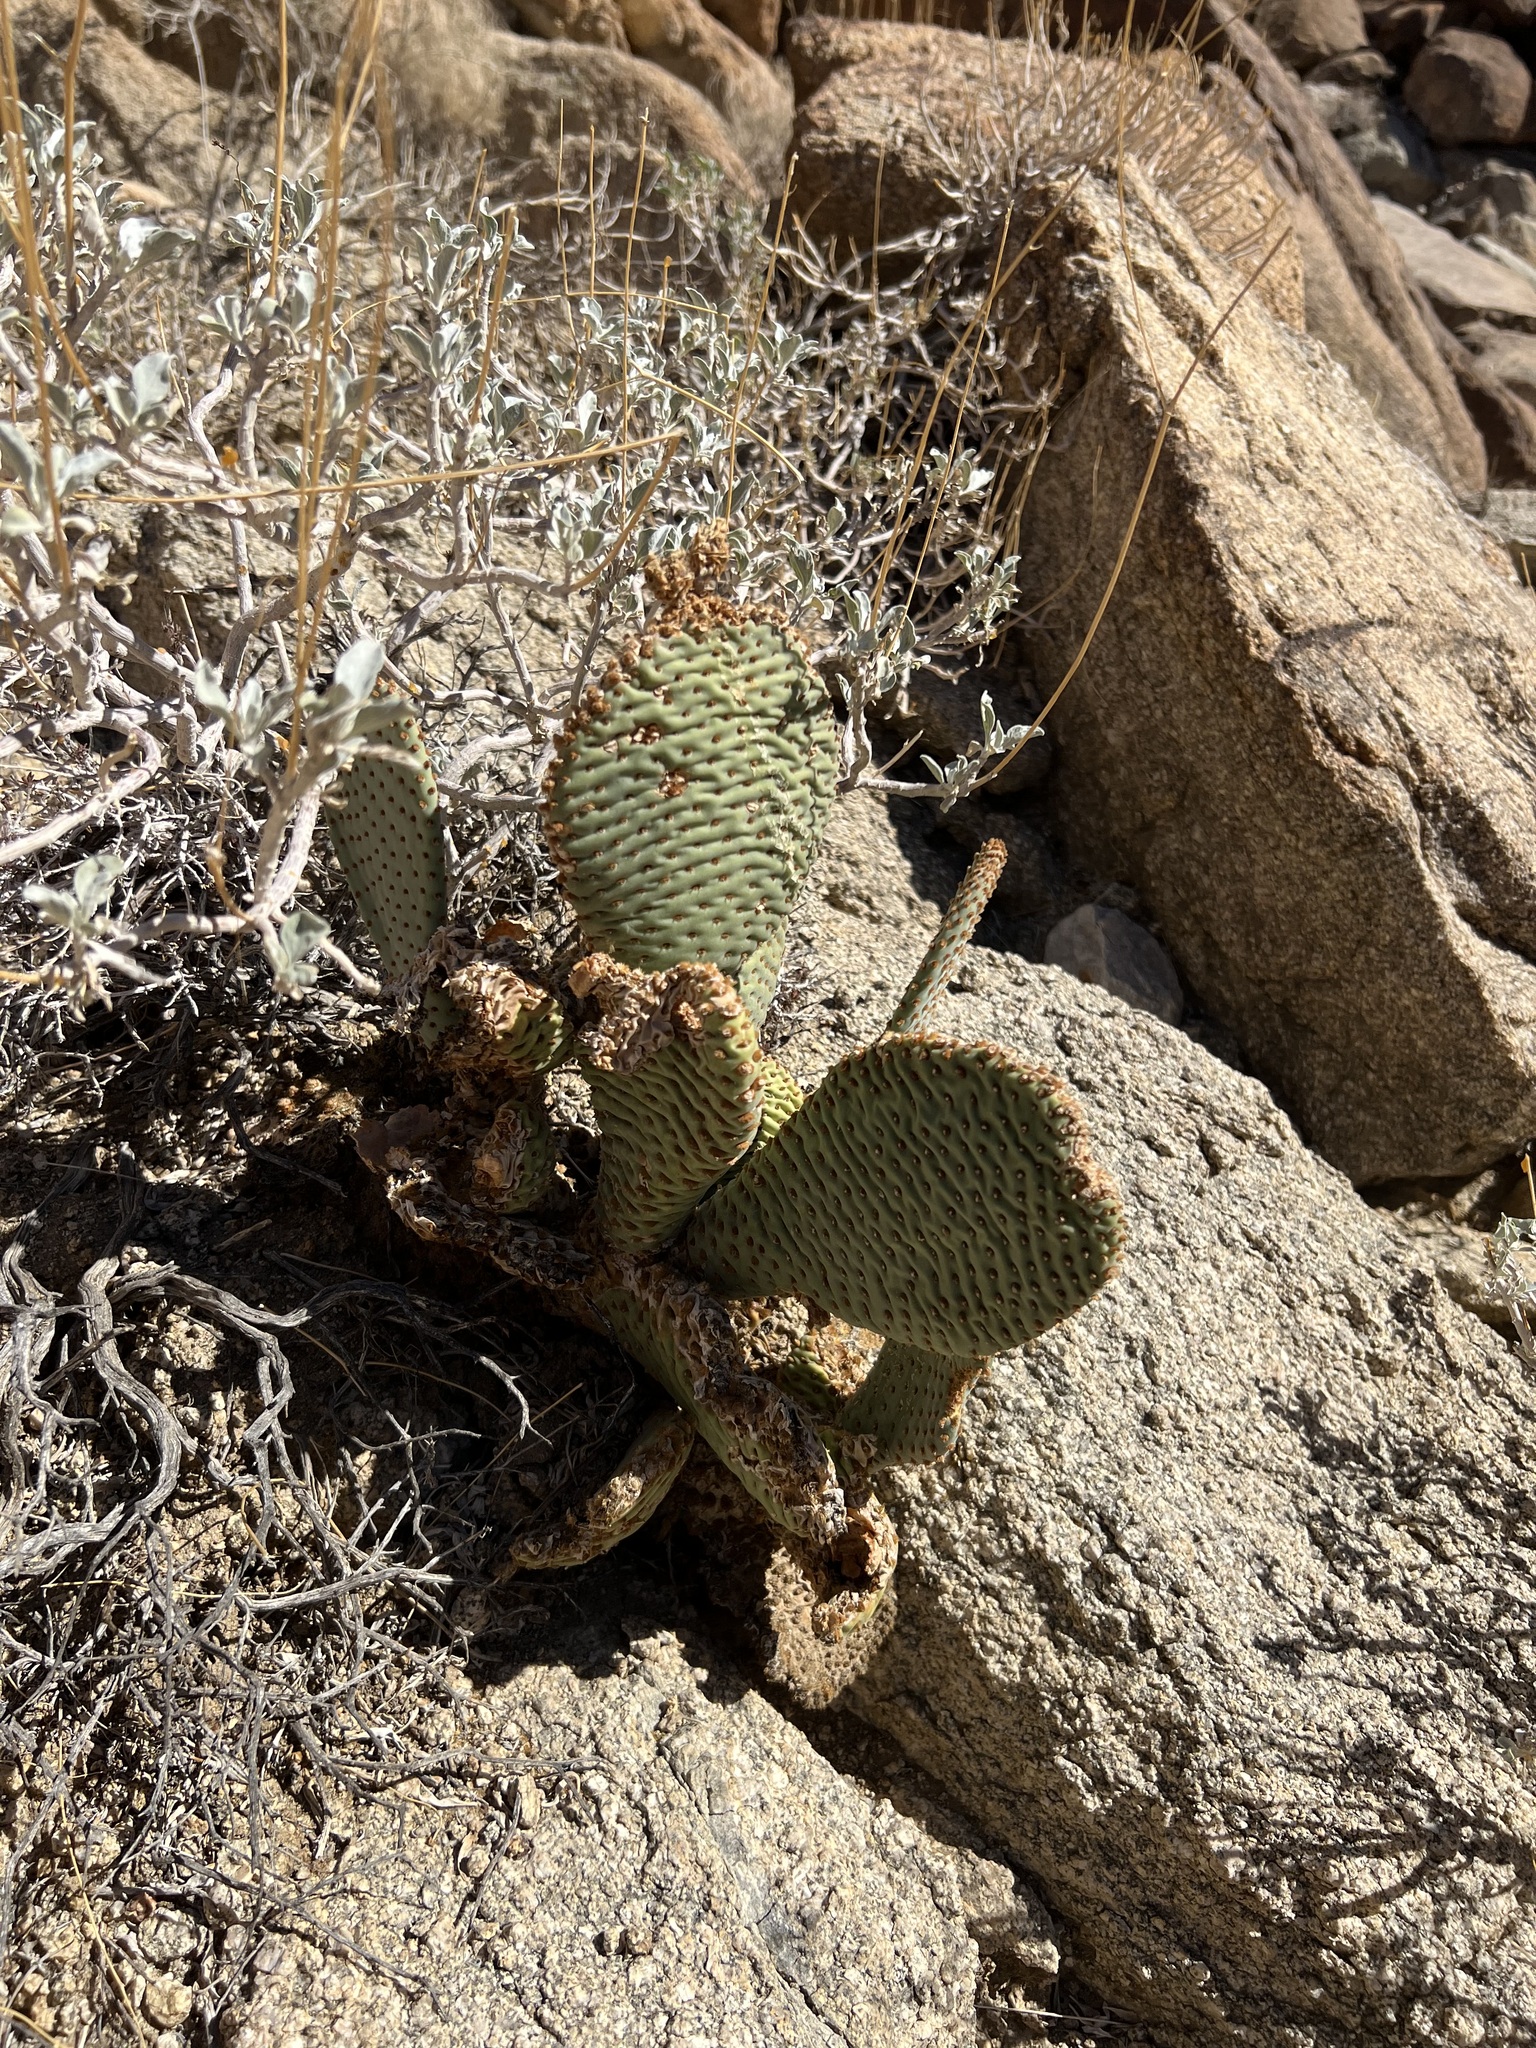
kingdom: Plantae
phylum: Tracheophyta
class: Magnoliopsida
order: Caryophyllales
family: Cactaceae
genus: Opuntia
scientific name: Opuntia basilaris
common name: Beavertail prickly-pear
